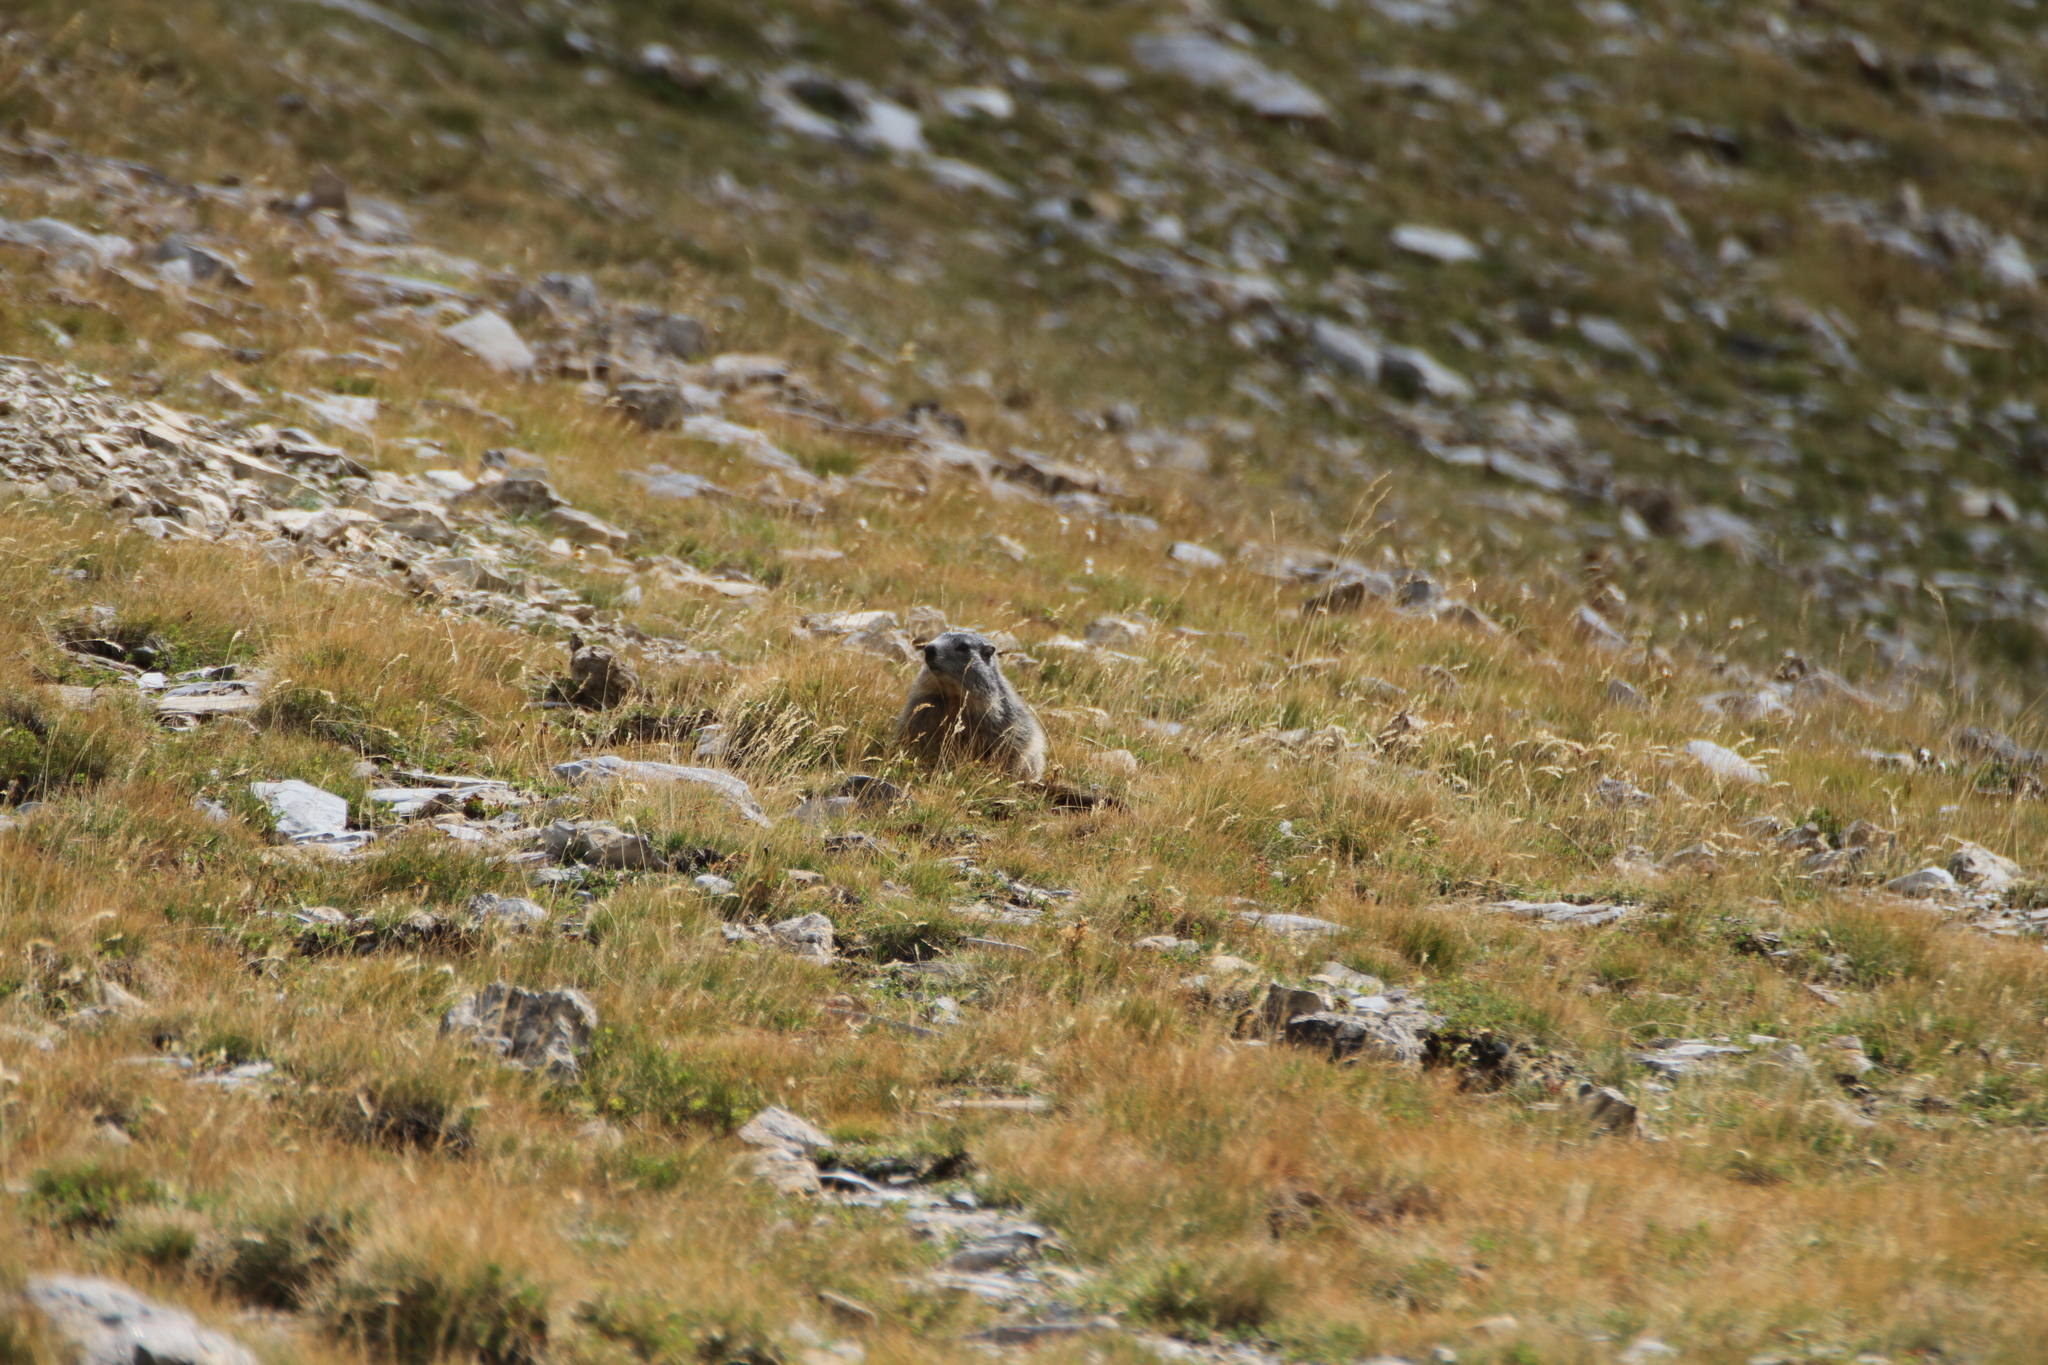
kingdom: Animalia
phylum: Chordata
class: Mammalia
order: Rodentia
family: Sciuridae
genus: Marmota
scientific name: Marmota marmota
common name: Alpine marmot
